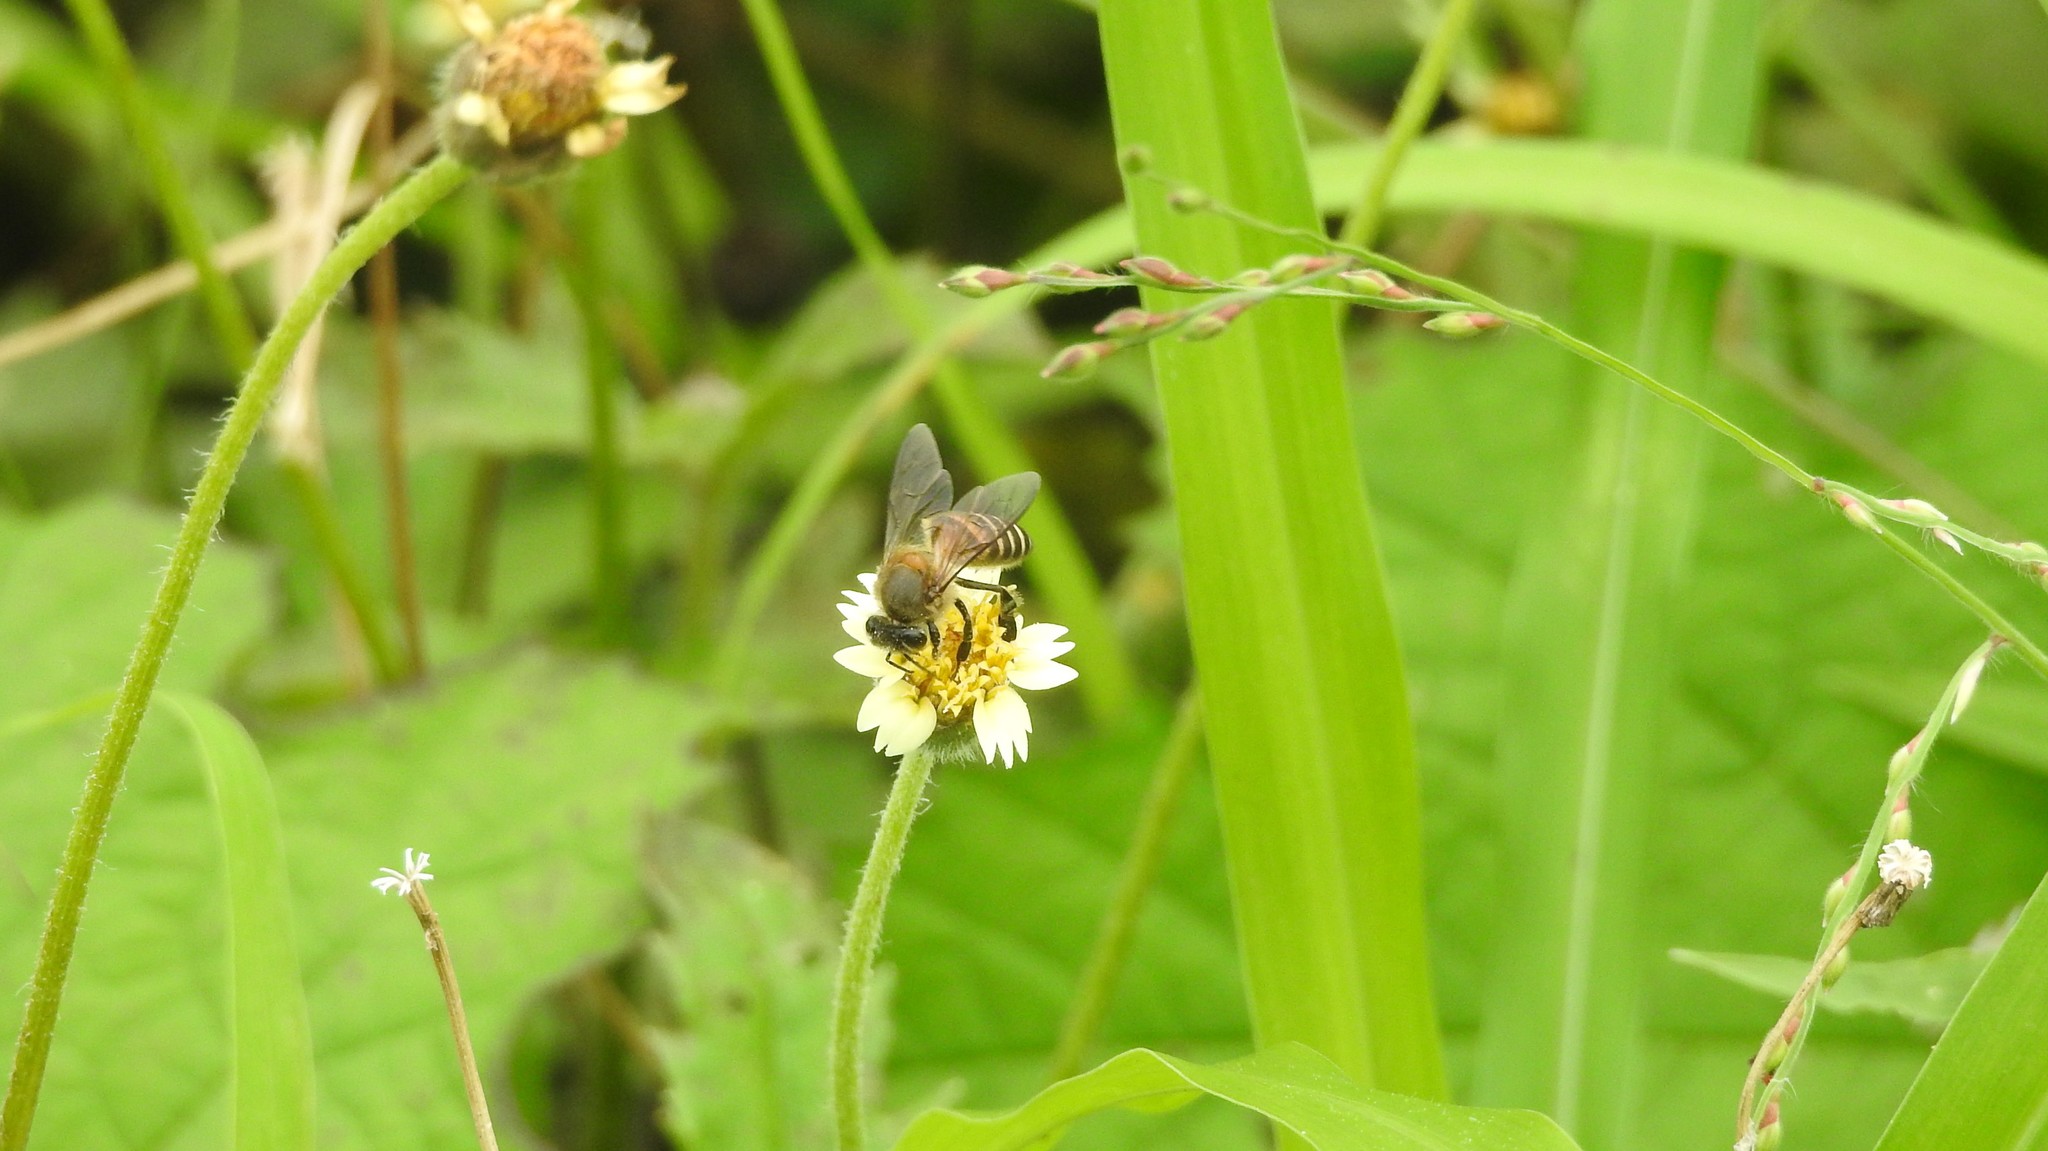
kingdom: Animalia
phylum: Arthropoda
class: Insecta
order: Hymenoptera
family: Apidae
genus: Apis
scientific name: Apis cerana
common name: Honey bee
